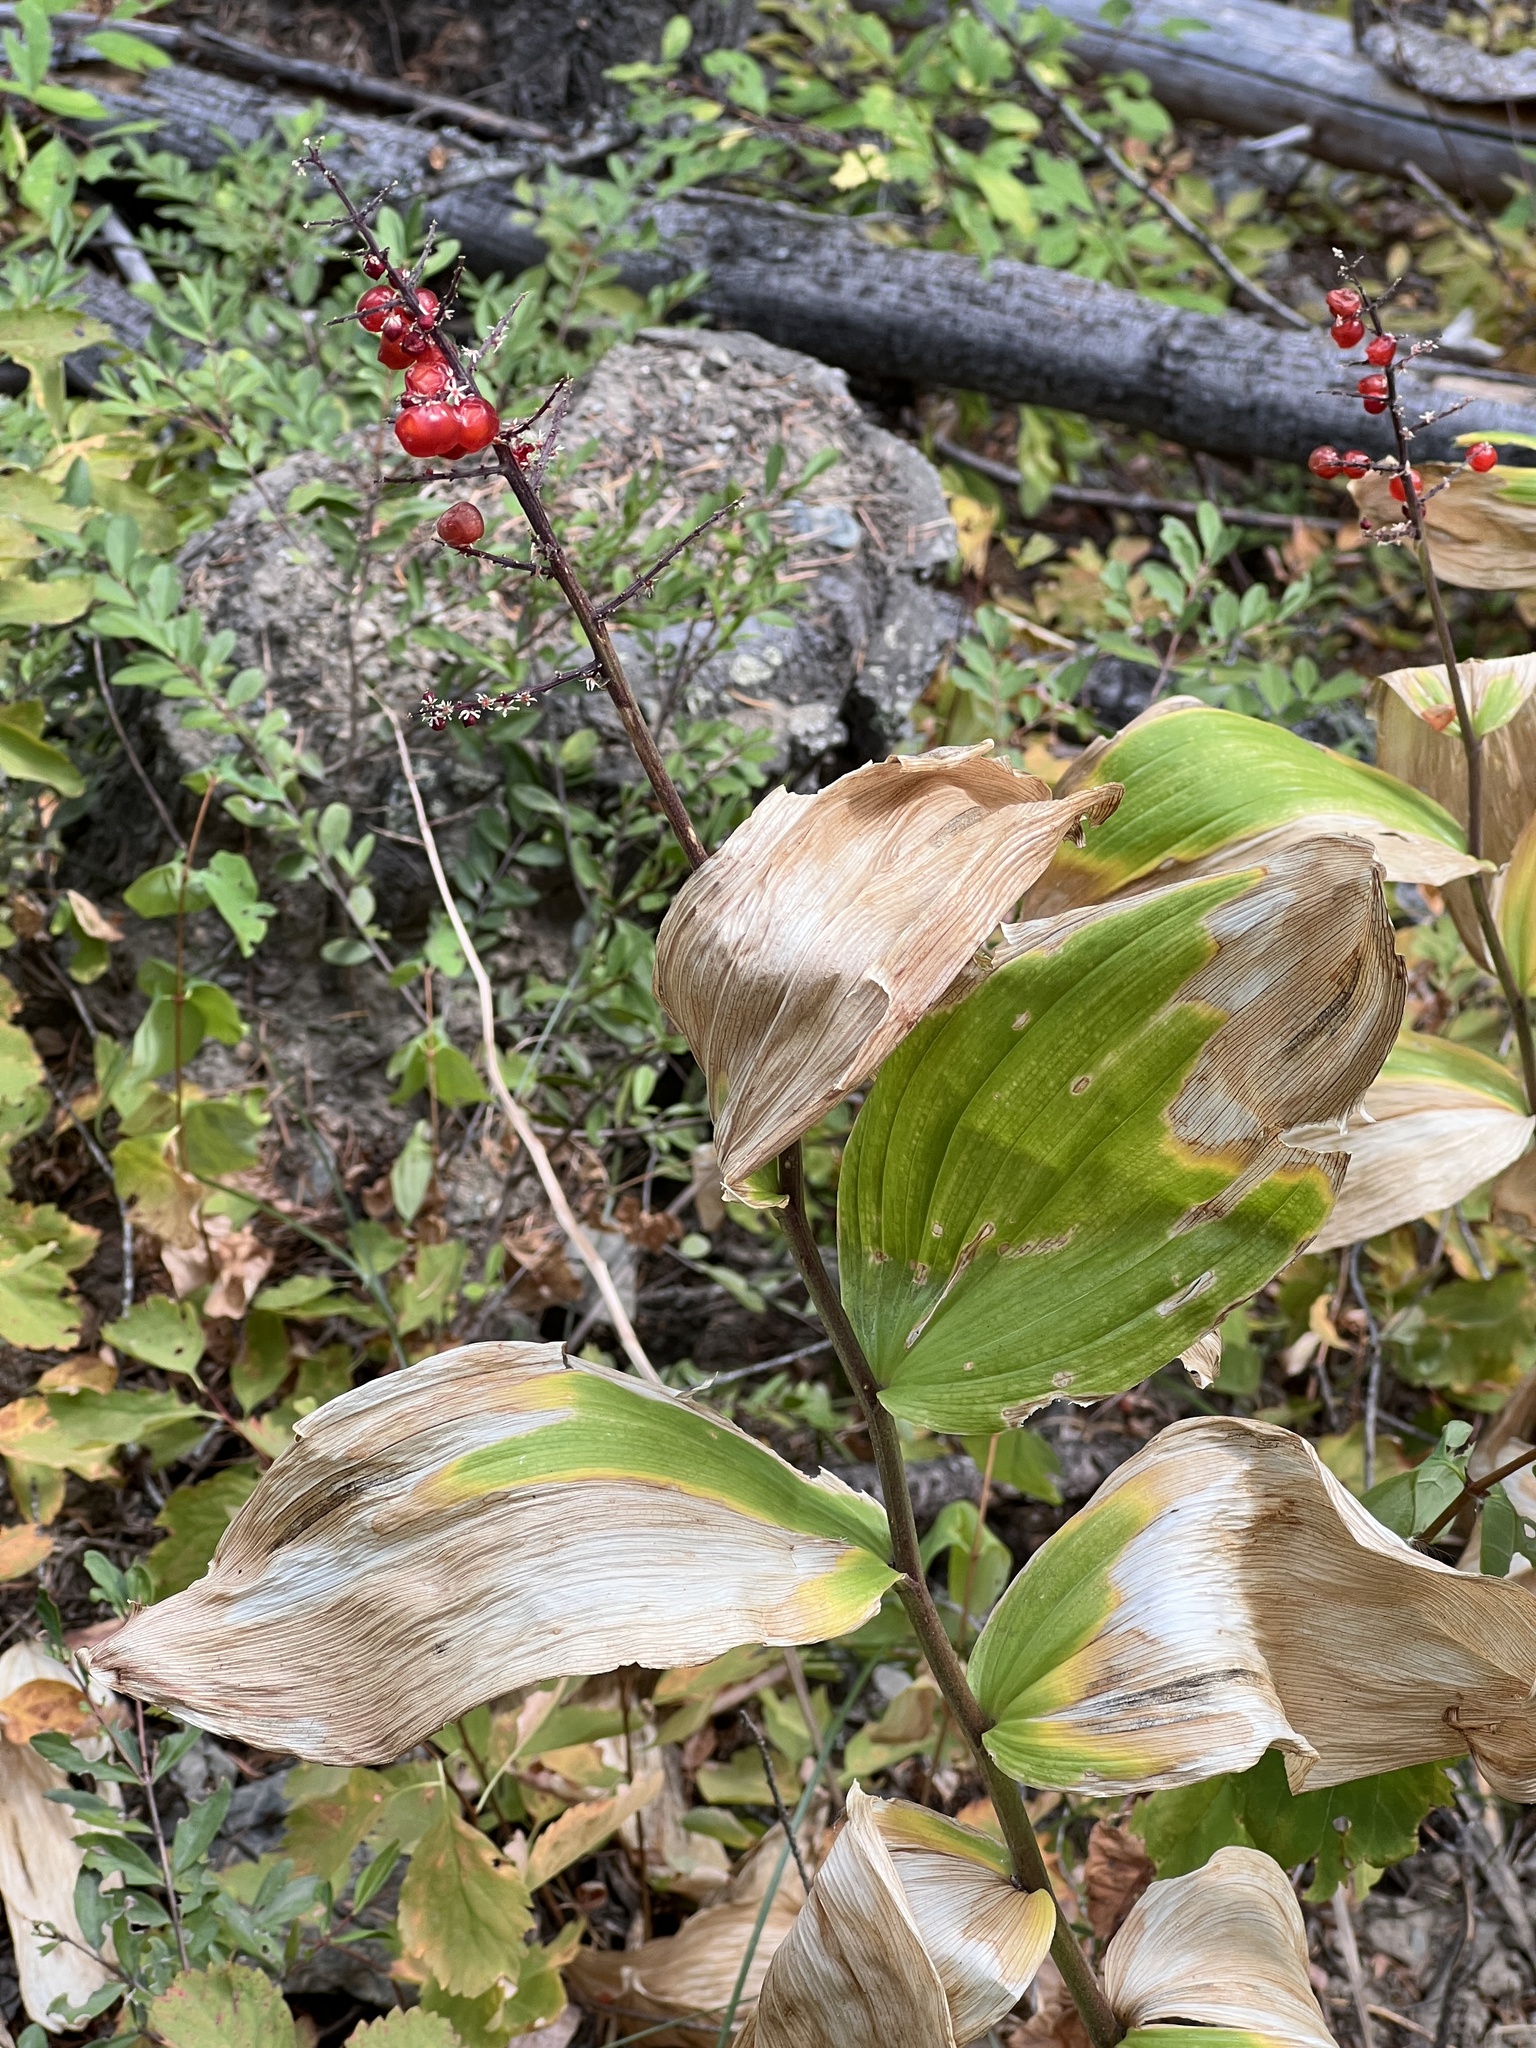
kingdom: Plantae
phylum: Tracheophyta
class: Liliopsida
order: Asparagales
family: Asparagaceae
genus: Maianthemum
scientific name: Maianthemum racemosum
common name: False spikenard
